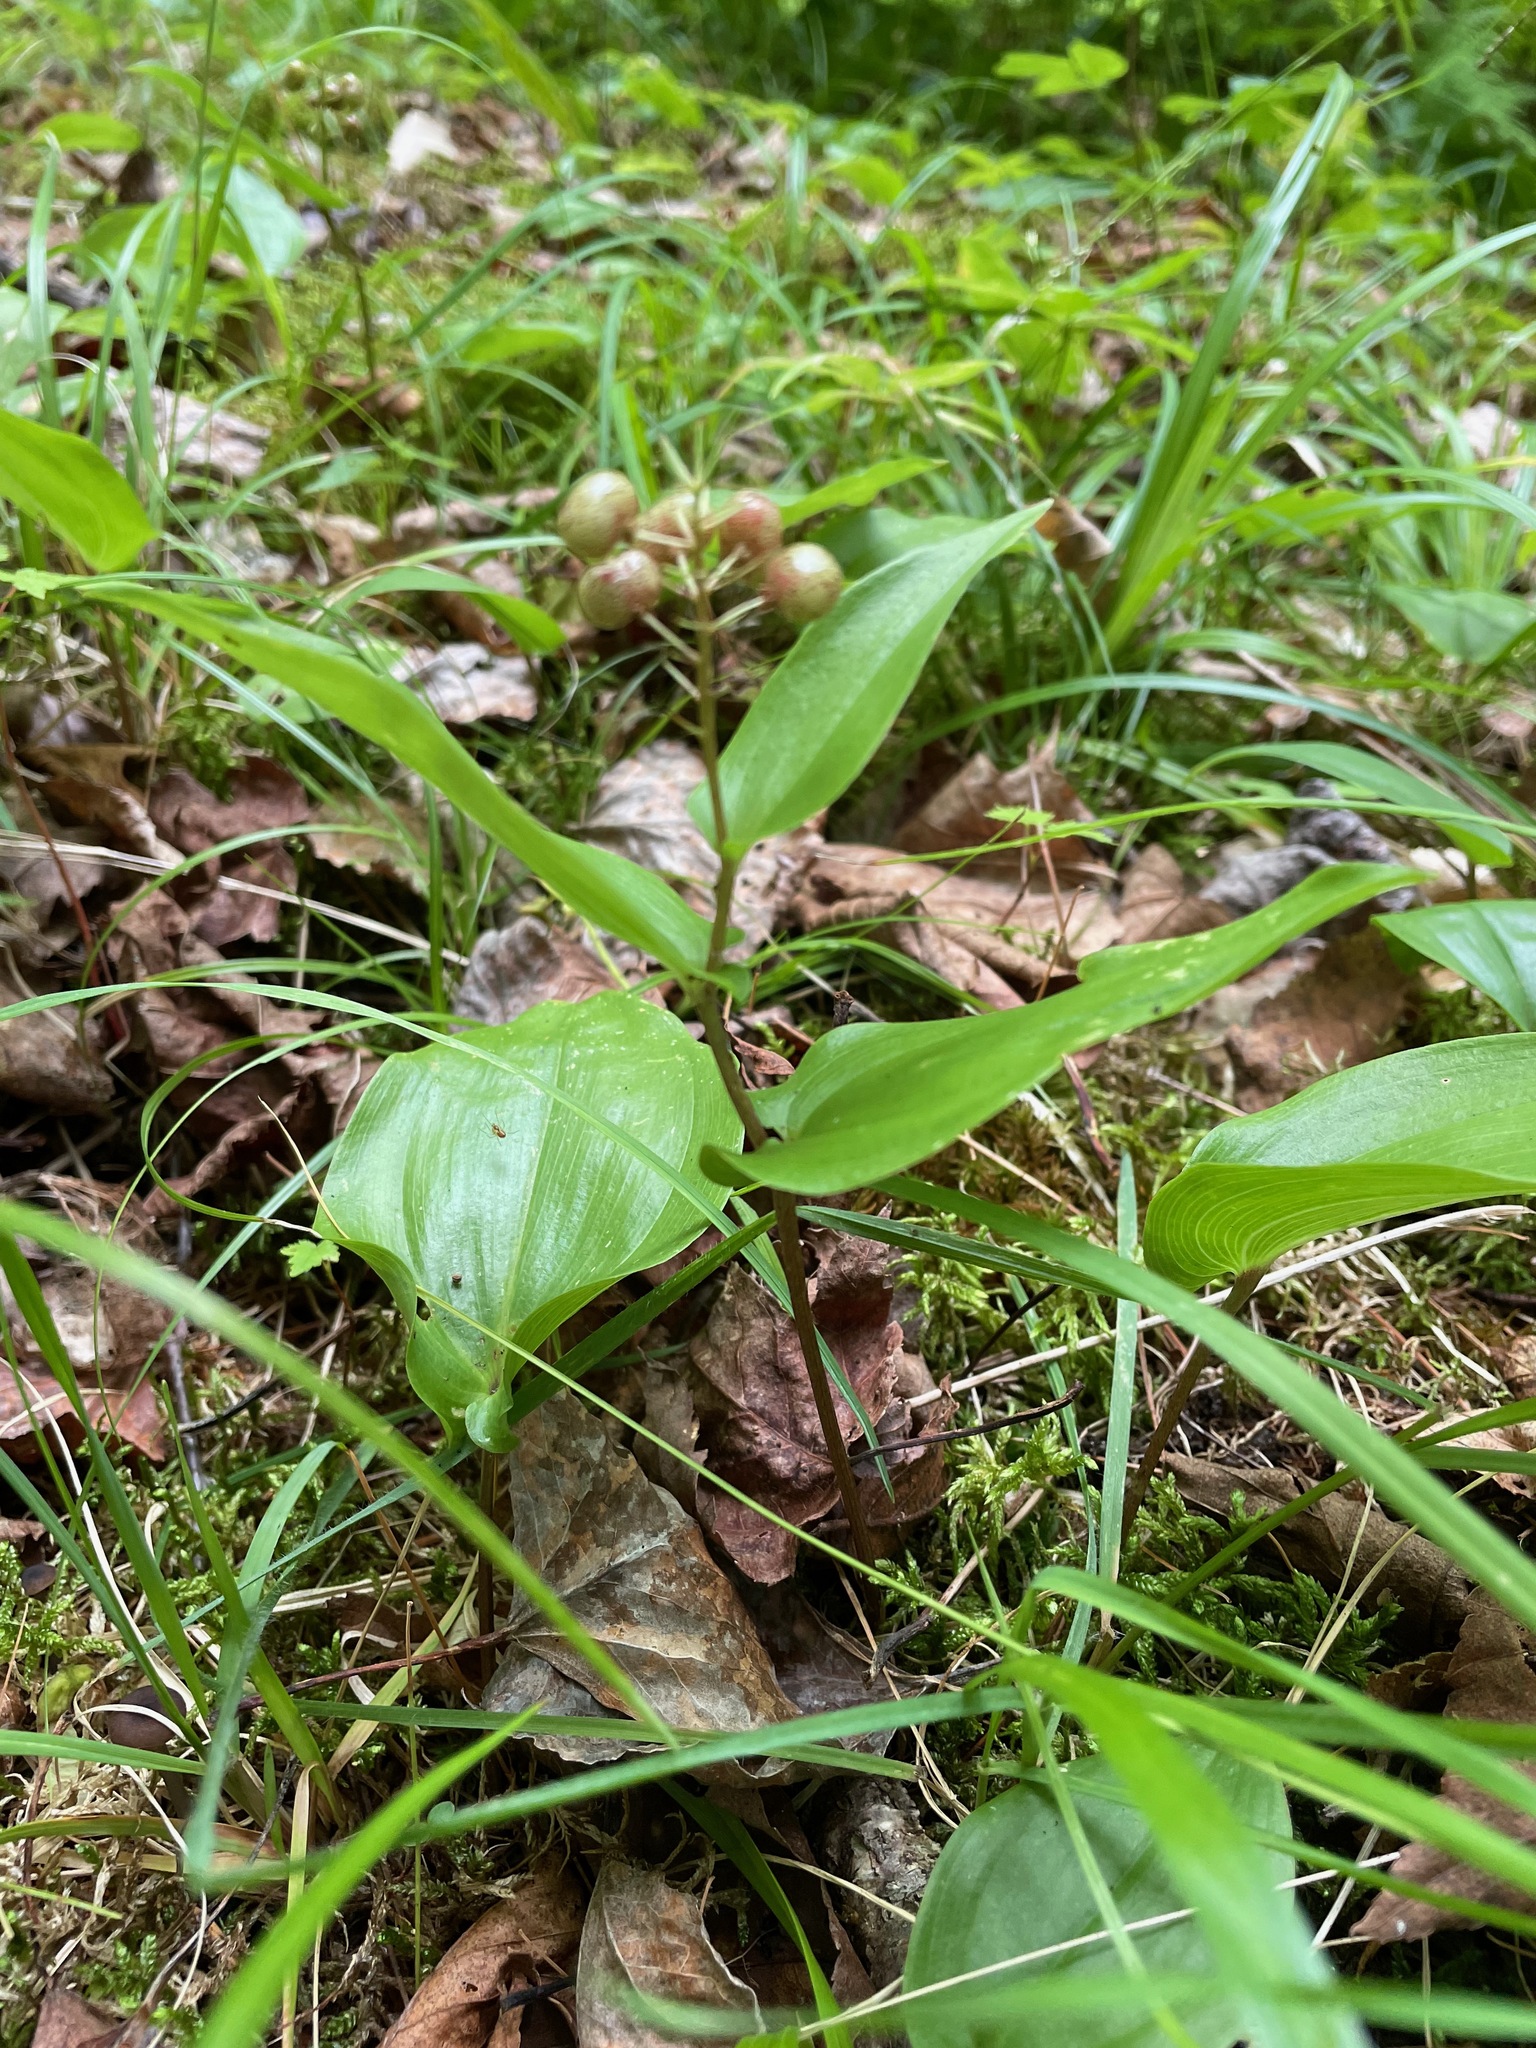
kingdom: Plantae
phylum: Tracheophyta
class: Liliopsida
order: Asparagales
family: Asparagaceae
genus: Maianthemum
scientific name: Maianthemum canadense
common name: False lily-of-the-valley
